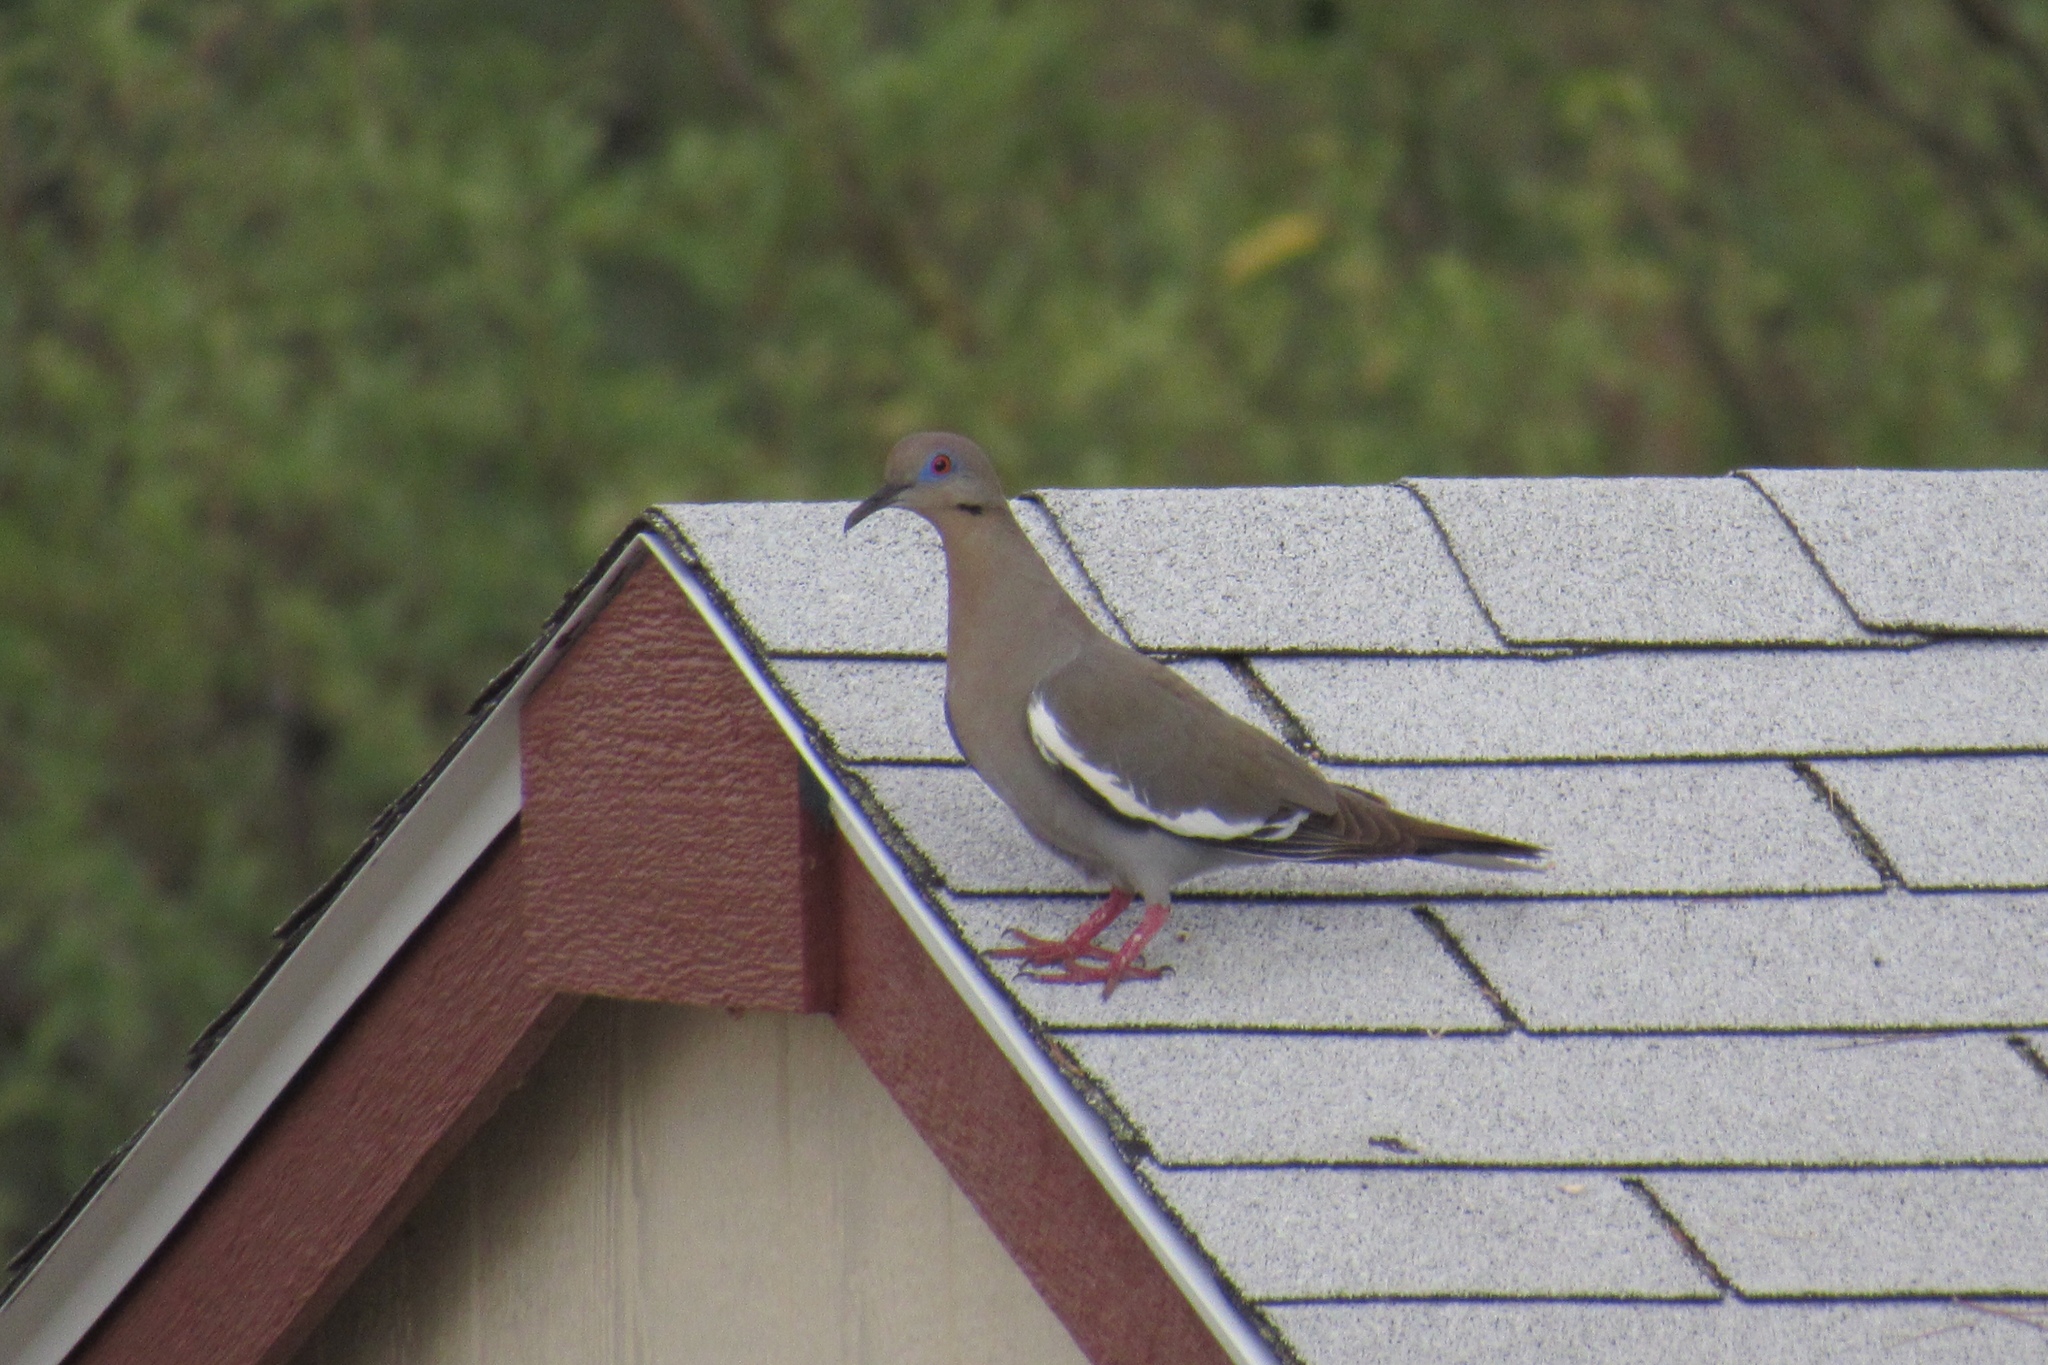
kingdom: Animalia
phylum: Chordata
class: Aves
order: Columbiformes
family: Columbidae
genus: Zenaida
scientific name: Zenaida asiatica
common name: White-winged dove
